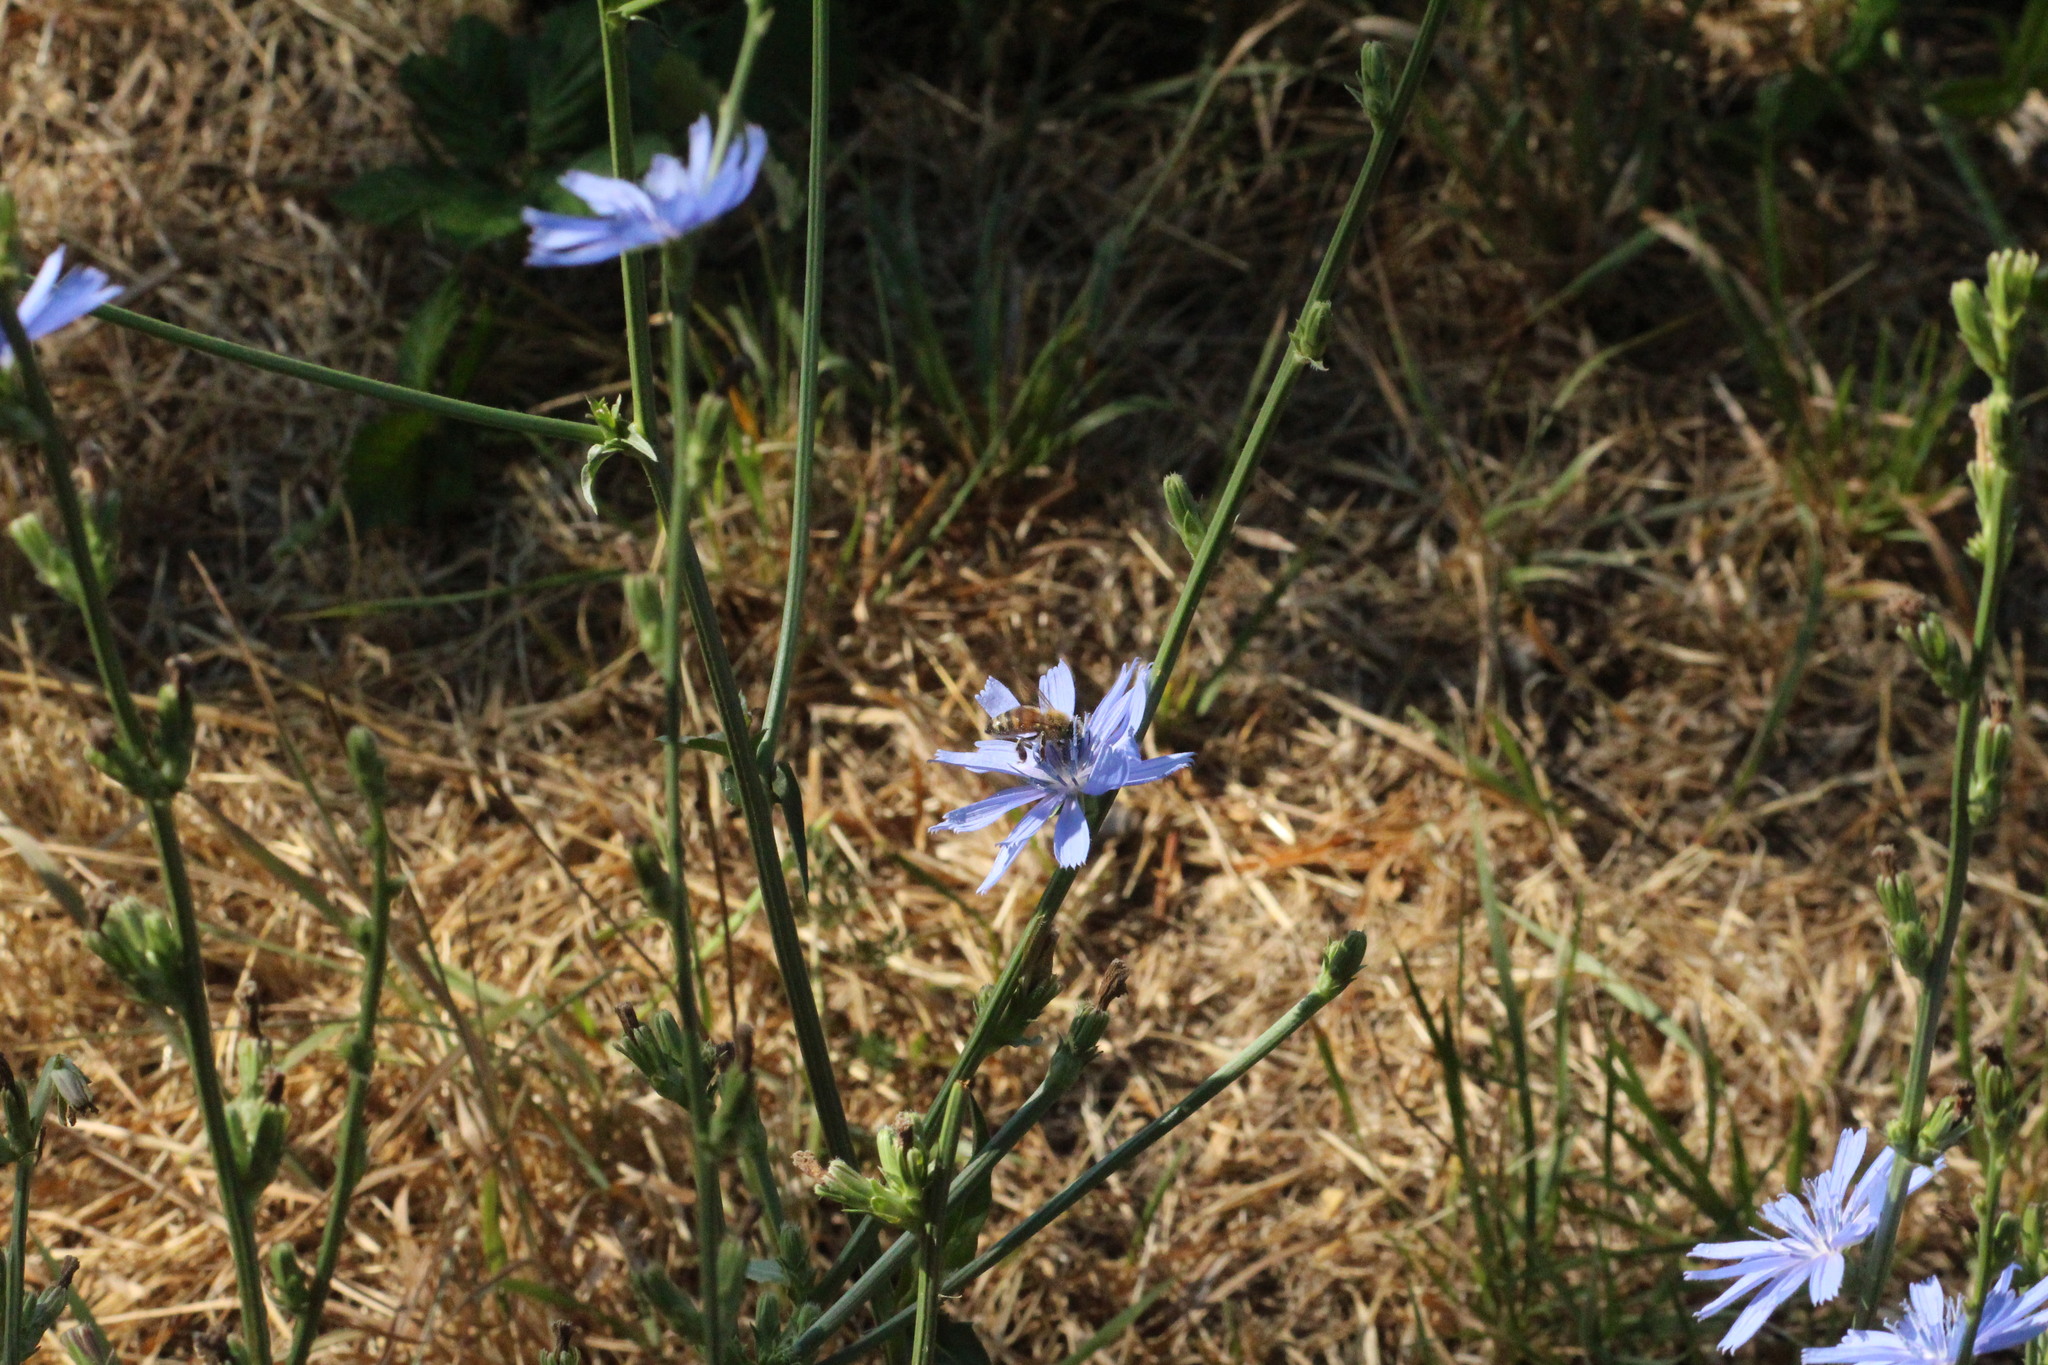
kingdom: Animalia
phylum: Arthropoda
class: Insecta
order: Hymenoptera
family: Apidae
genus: Apis
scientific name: Apis mellifera
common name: Honey bee
